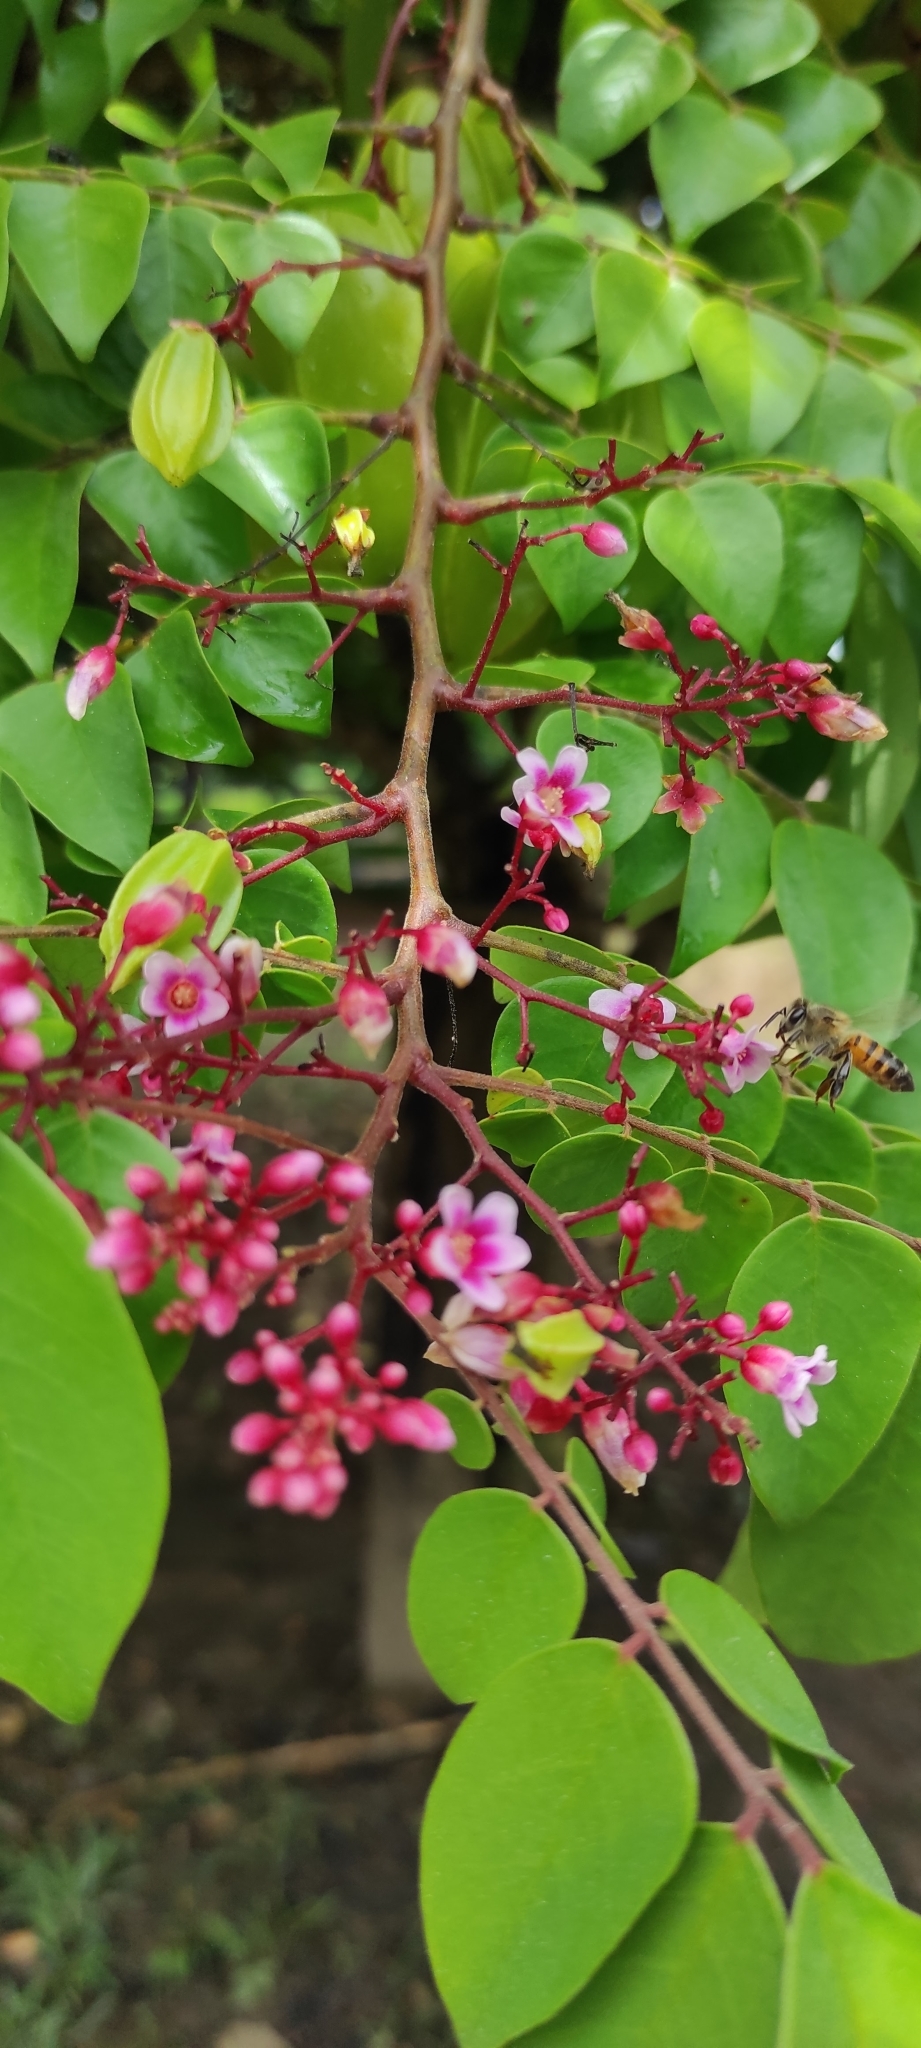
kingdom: Animalia
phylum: Arthropoda
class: Insecta
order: Hymenoptera
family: Apidae
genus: Apis
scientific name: Apis mellifera
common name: Honey bee
